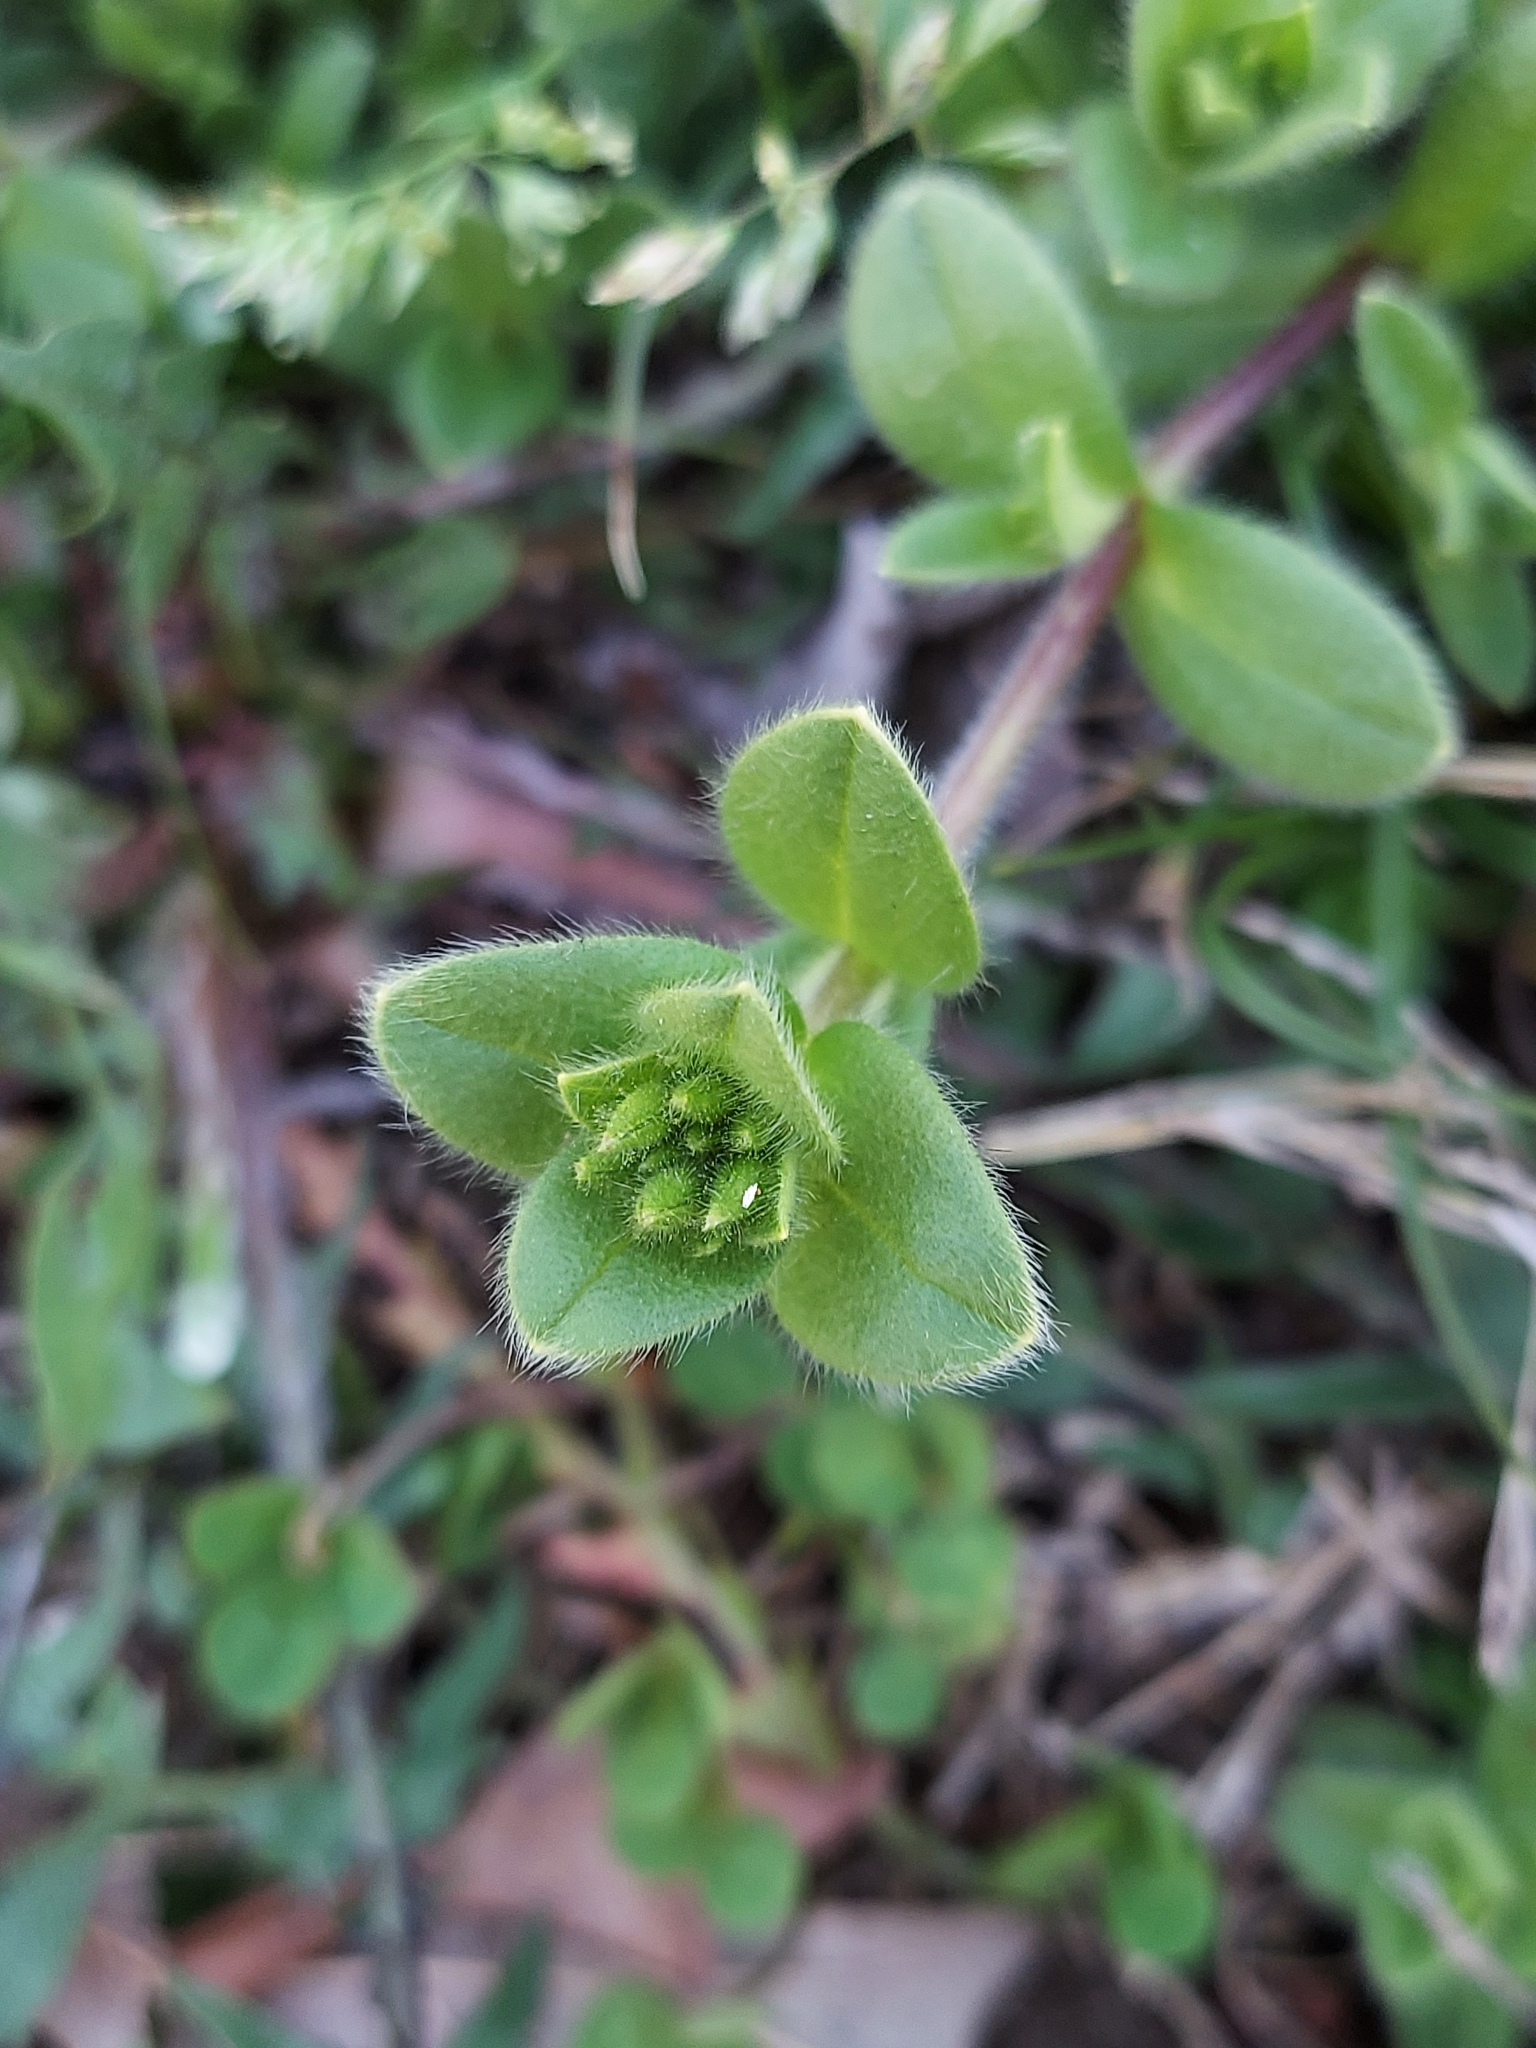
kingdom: Plantae
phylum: Tracheophyta
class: Magnoliopsida
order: Caryophyllales
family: Caryophyllaceae
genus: Cerastium
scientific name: Cerastium glomeratum
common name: Sticky chickweed
